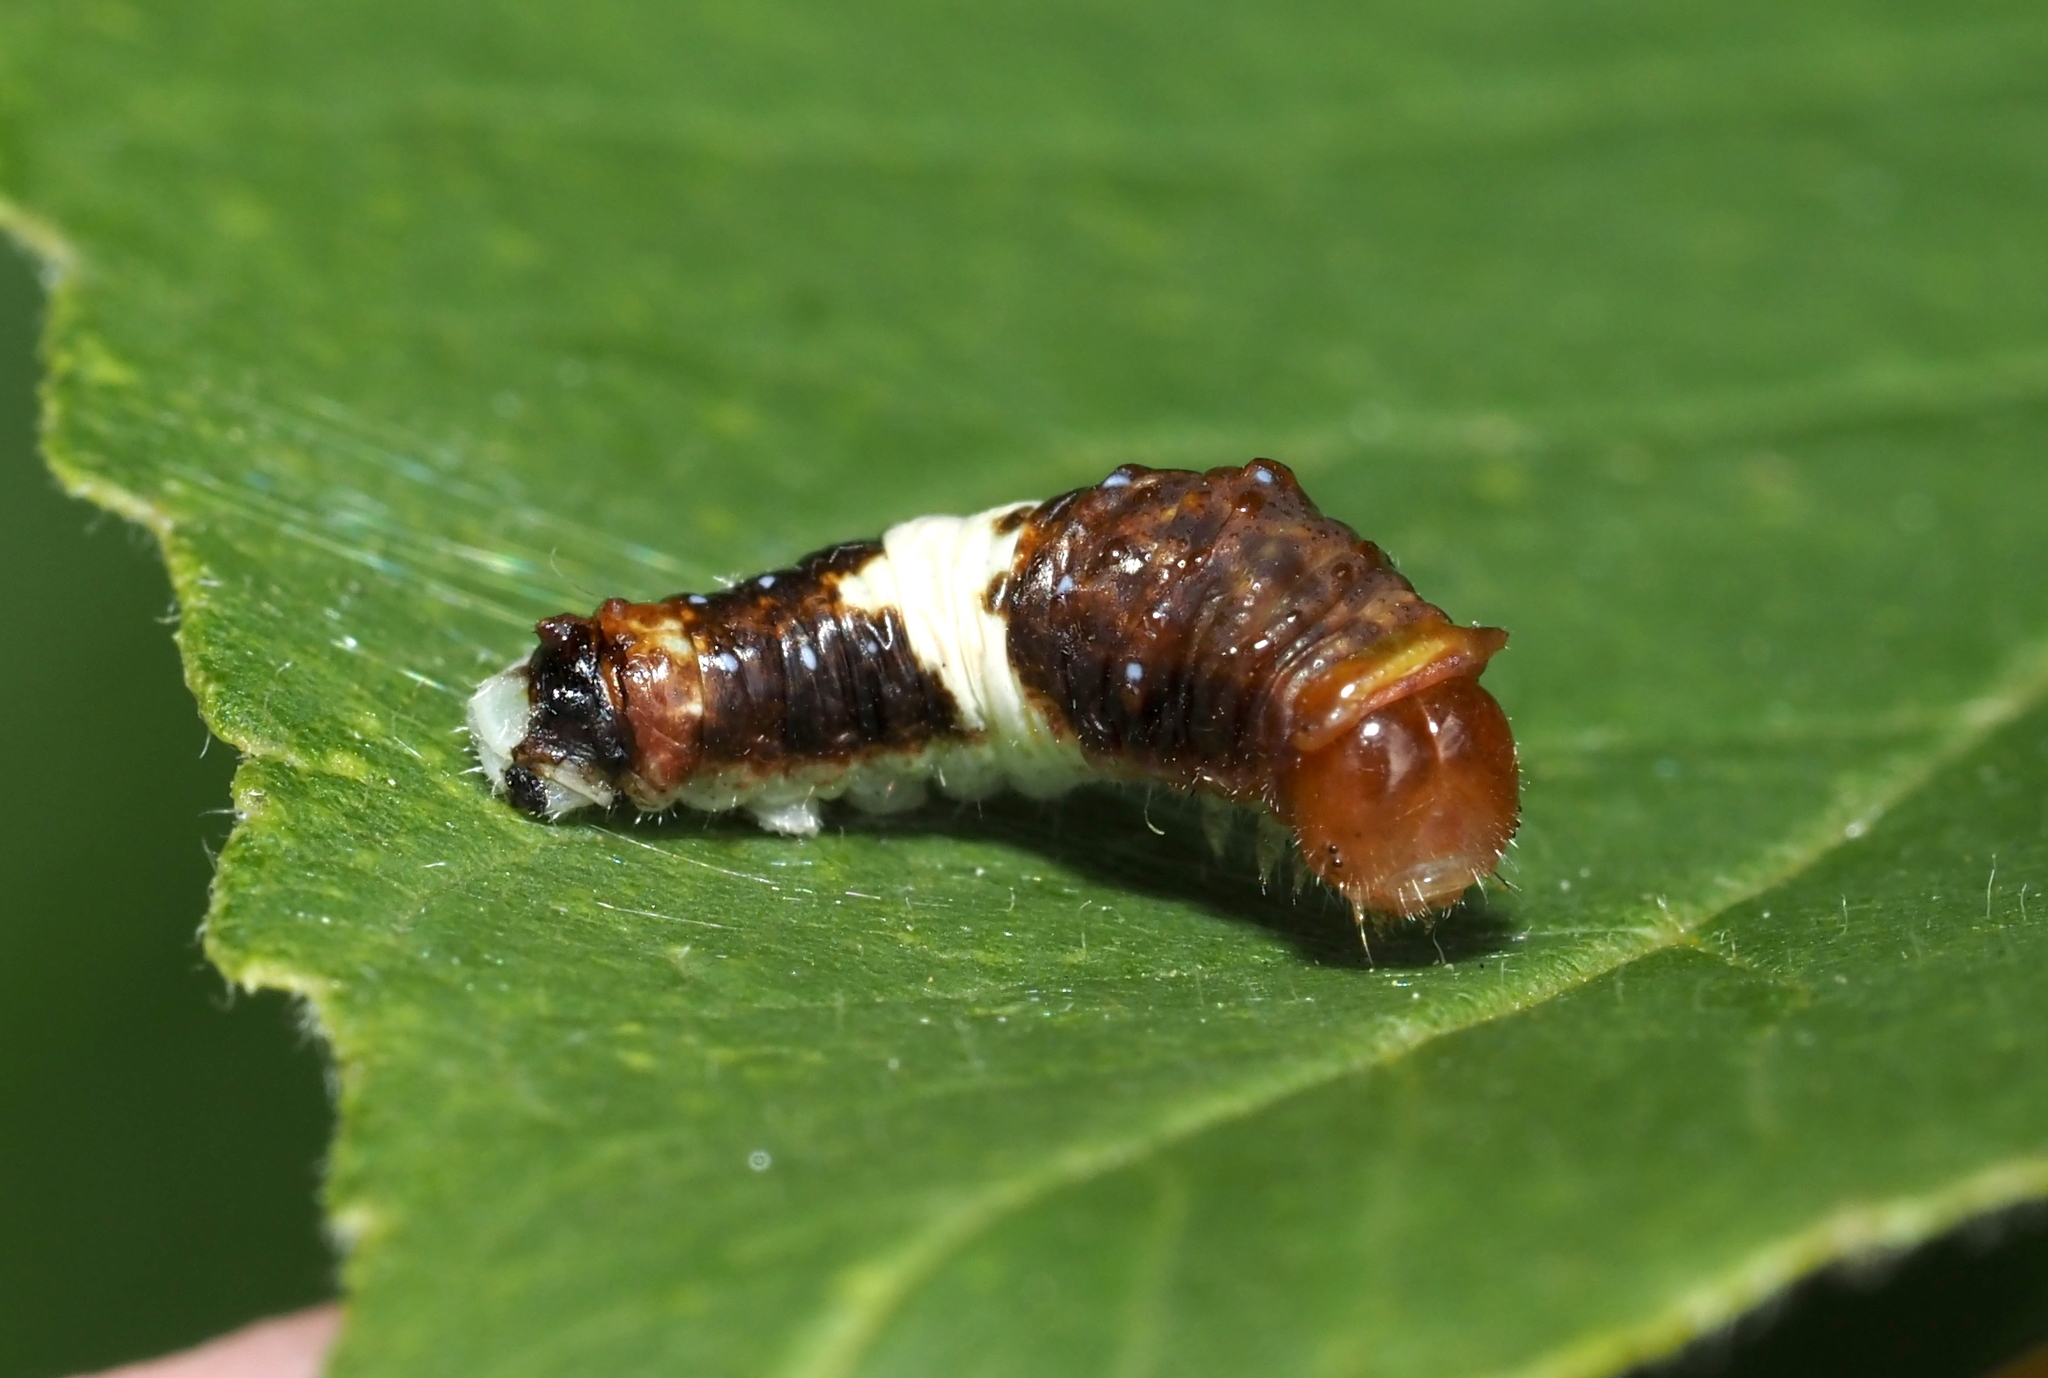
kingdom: Animalia
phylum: Arthropoda
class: Insecta
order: Lepidoptera
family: Papilionidae
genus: Papilio
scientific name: Papilio glaucus
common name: Tiger swallowtail
